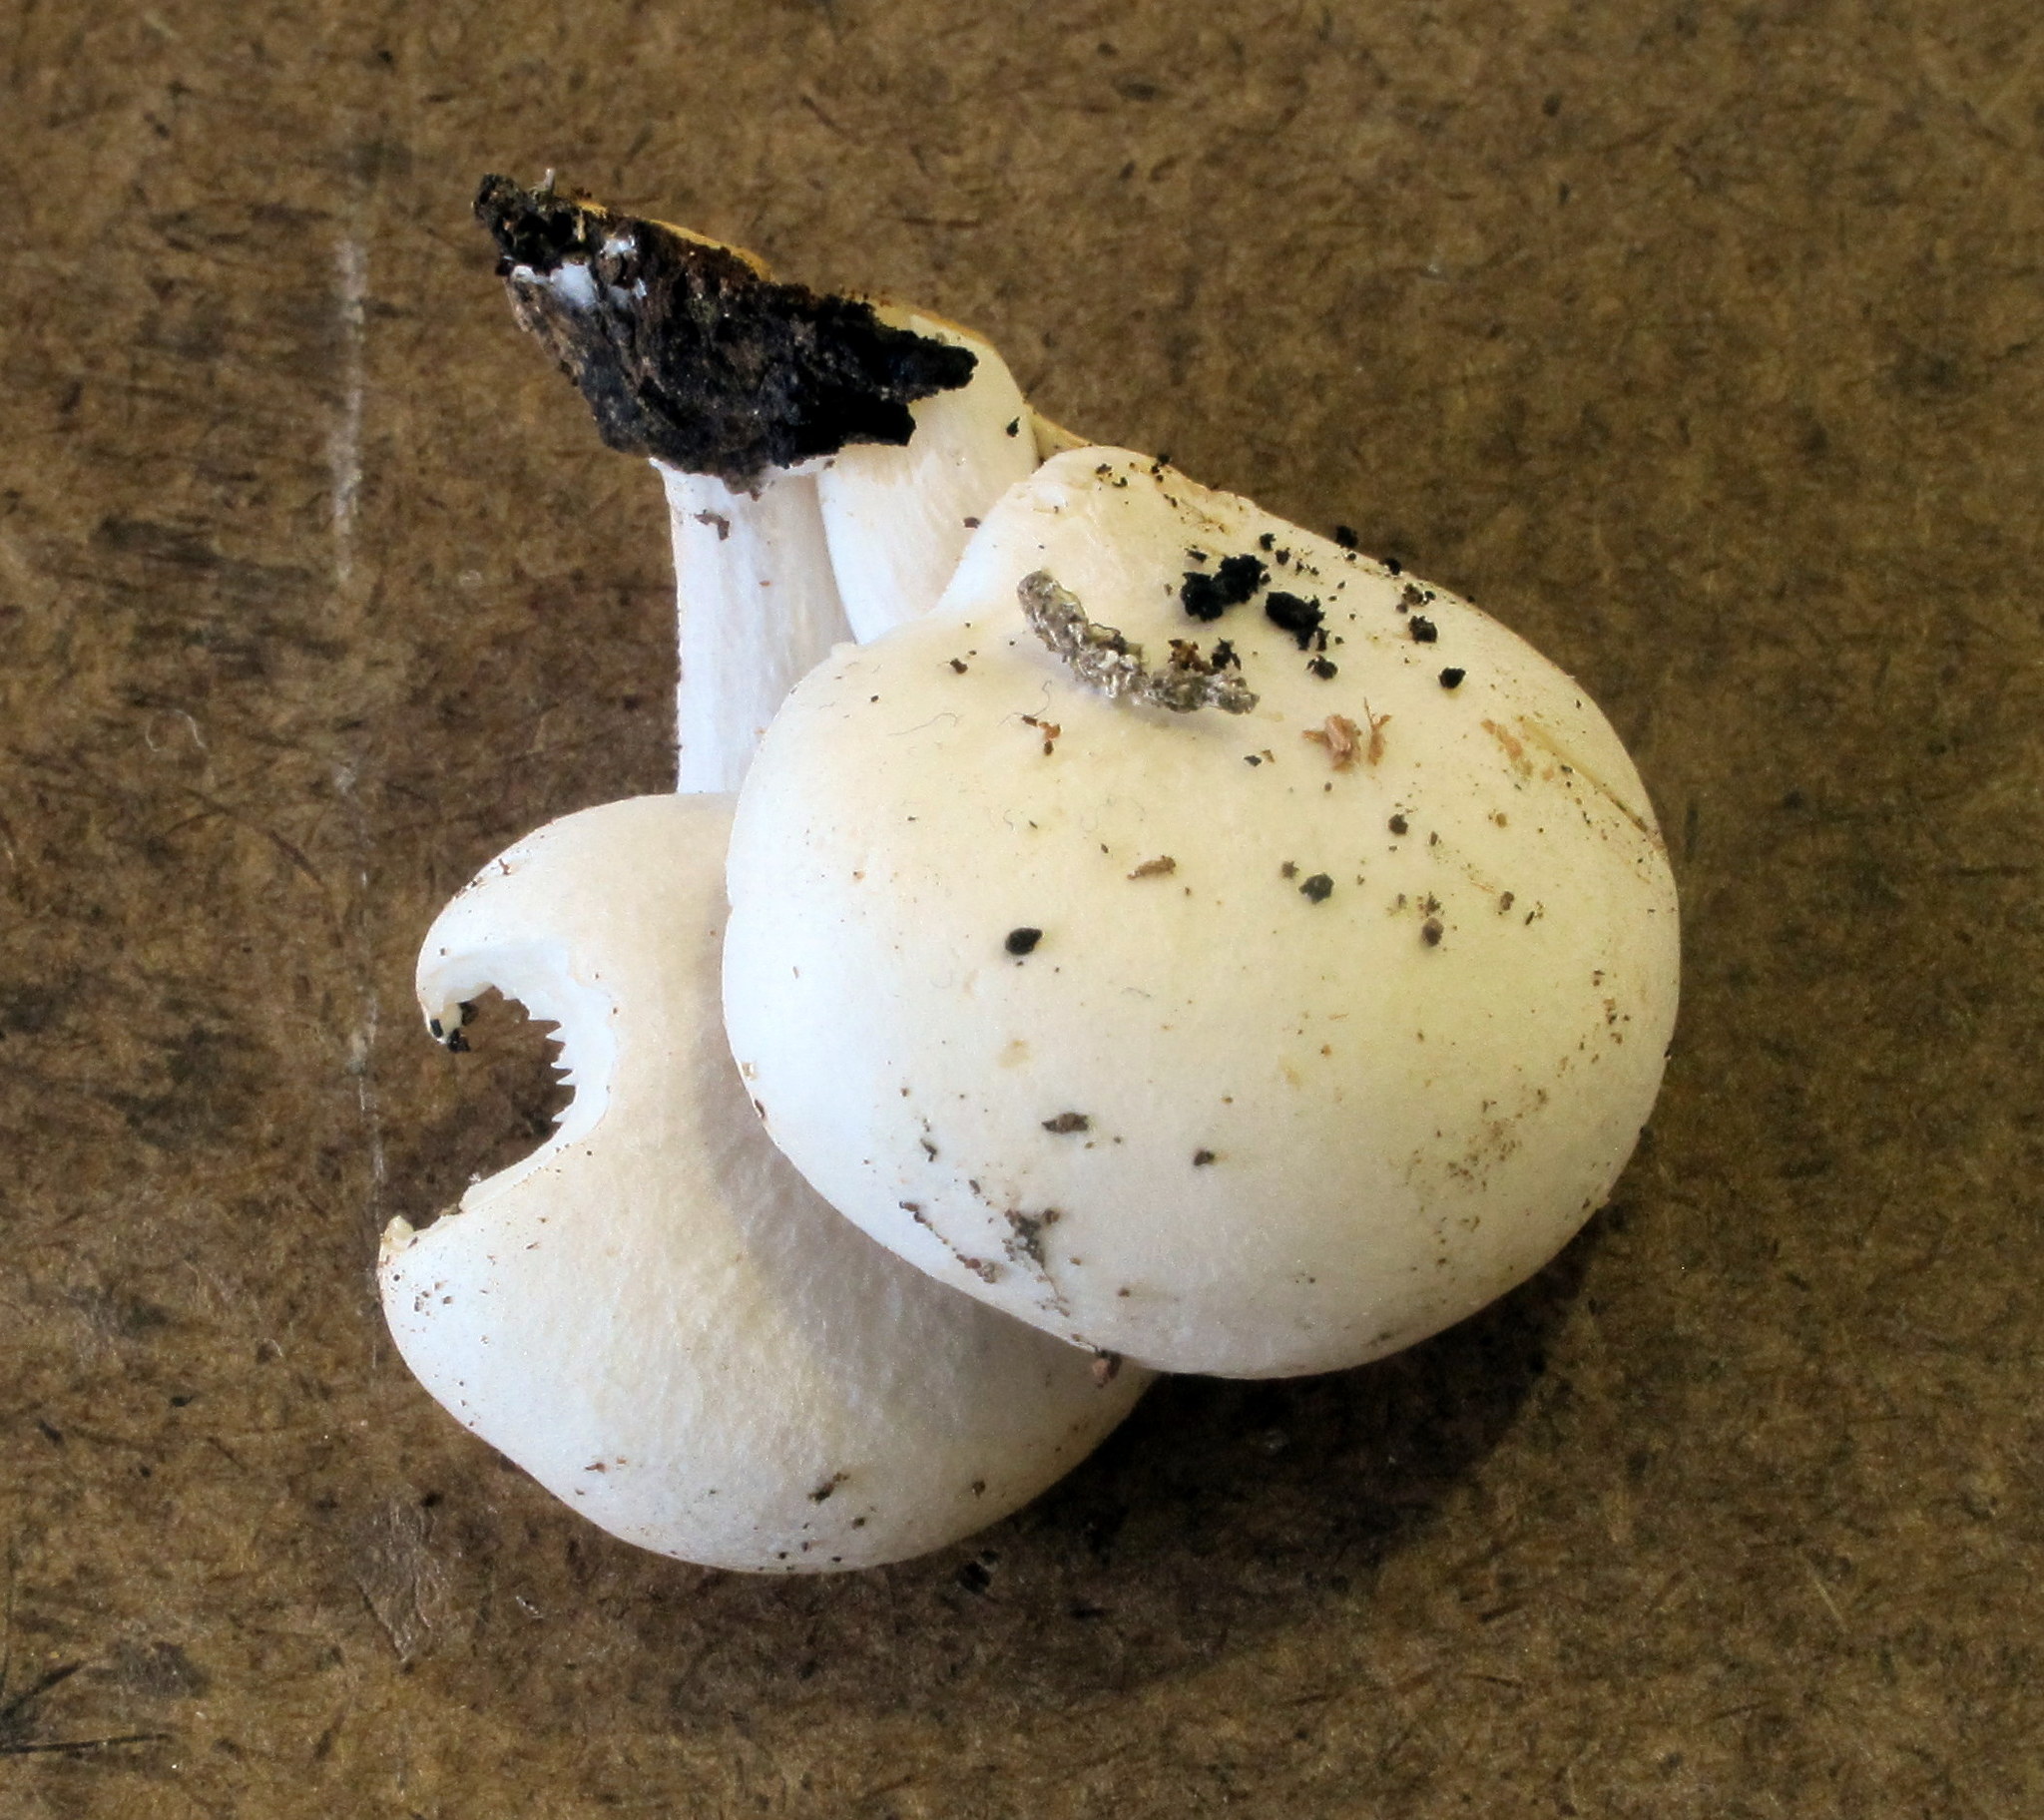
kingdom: Fungi
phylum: Basidiomycota
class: Agaricomycetes
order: Agaricales
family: Lyophyllaceae
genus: Ossicaulis
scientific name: Ossicaulis lignatilis
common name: Mealy oyster
